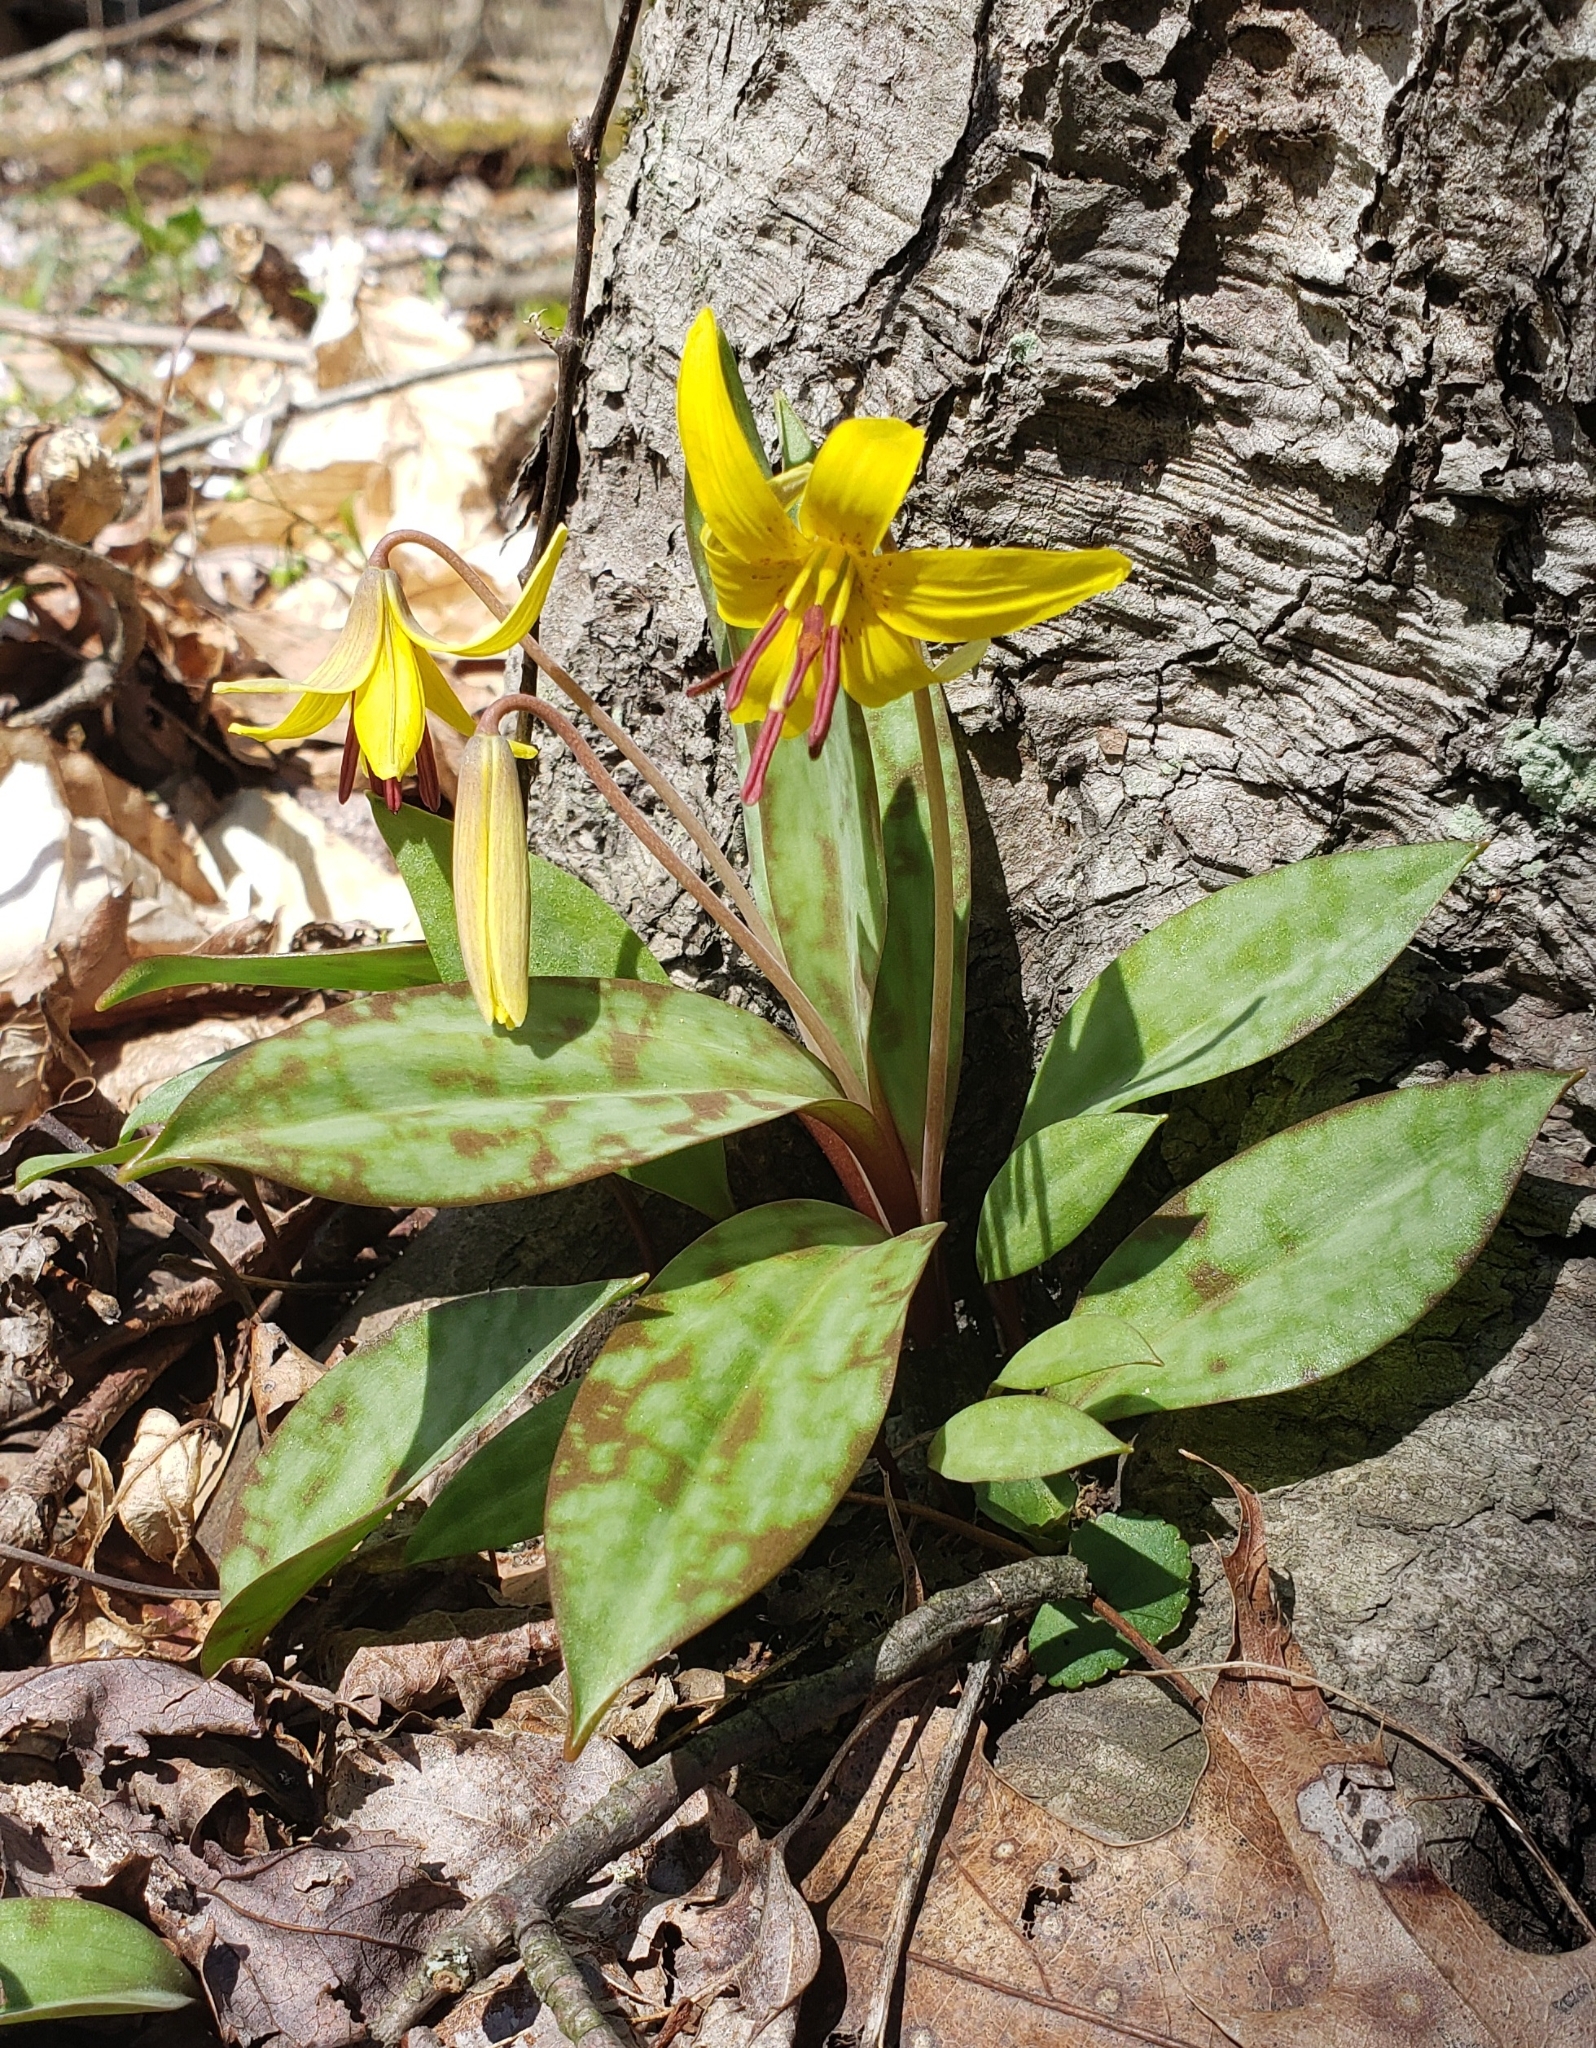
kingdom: Plantae
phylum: Tracheophyta
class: Liliopsida
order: Liliales
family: Liliaceae
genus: Erythronium
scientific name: Erythronium americanum
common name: Yellow adder's-tongue
